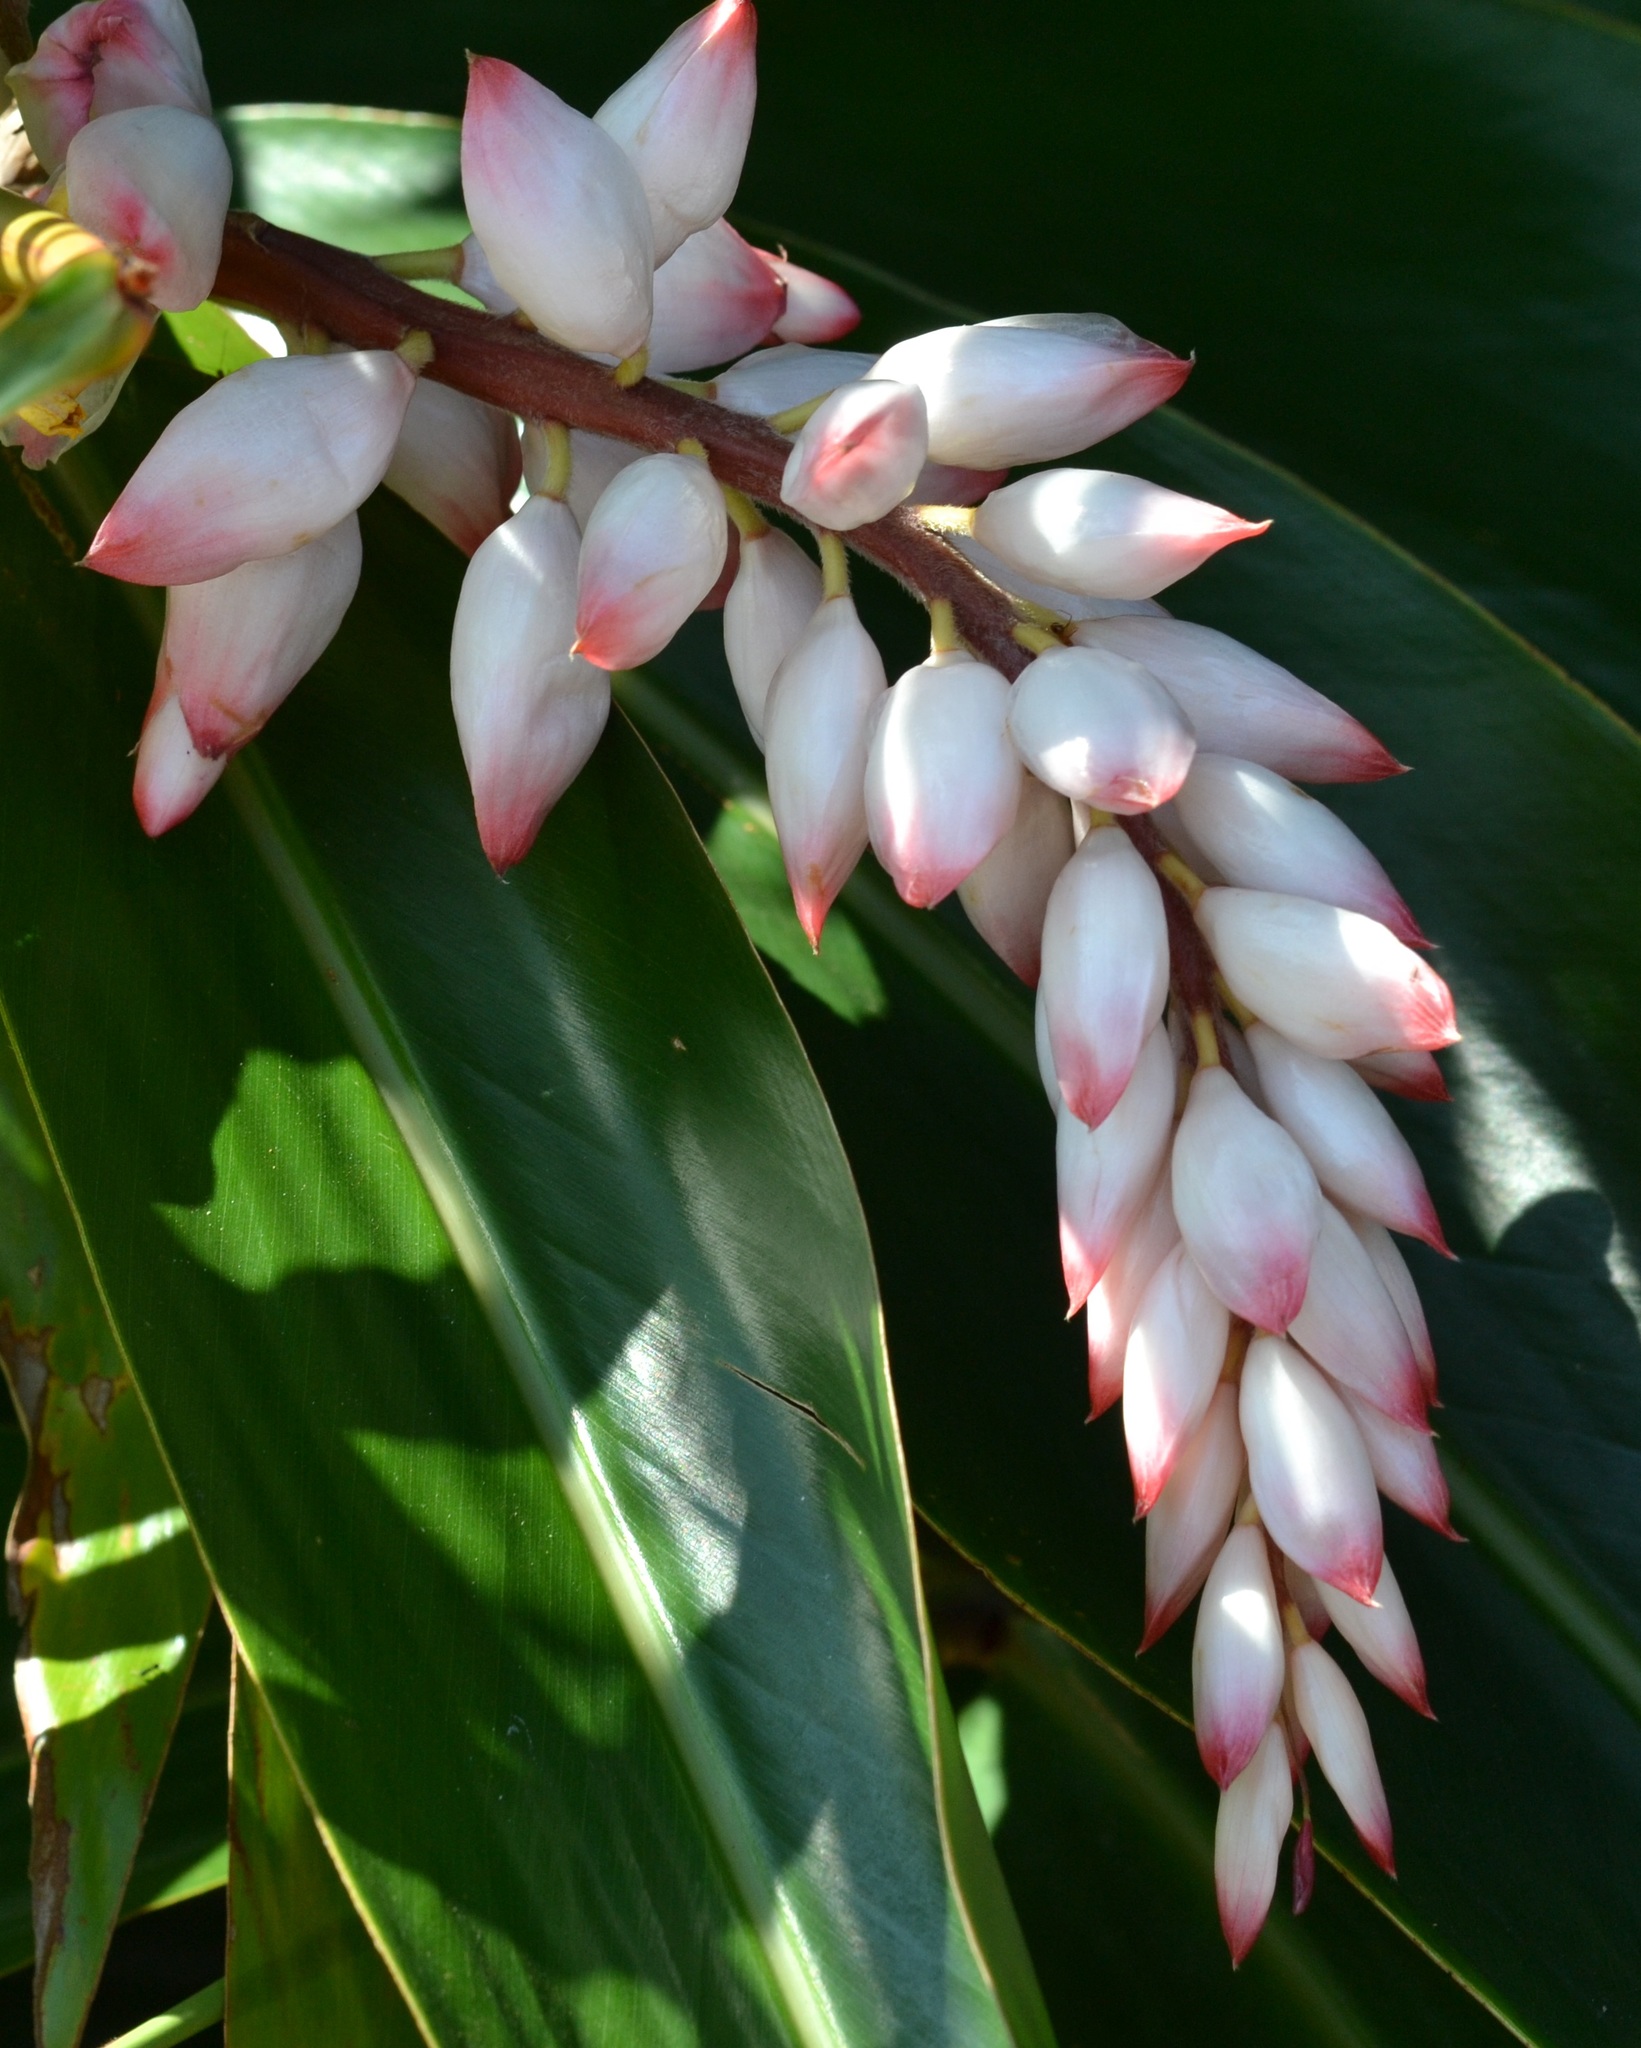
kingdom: Plantae
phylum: Tracheophyta
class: Liliopsida
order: Zingiberales
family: Zingiberaceae
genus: Alpinia
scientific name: Alpinia zerumbet
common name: Shellplant
